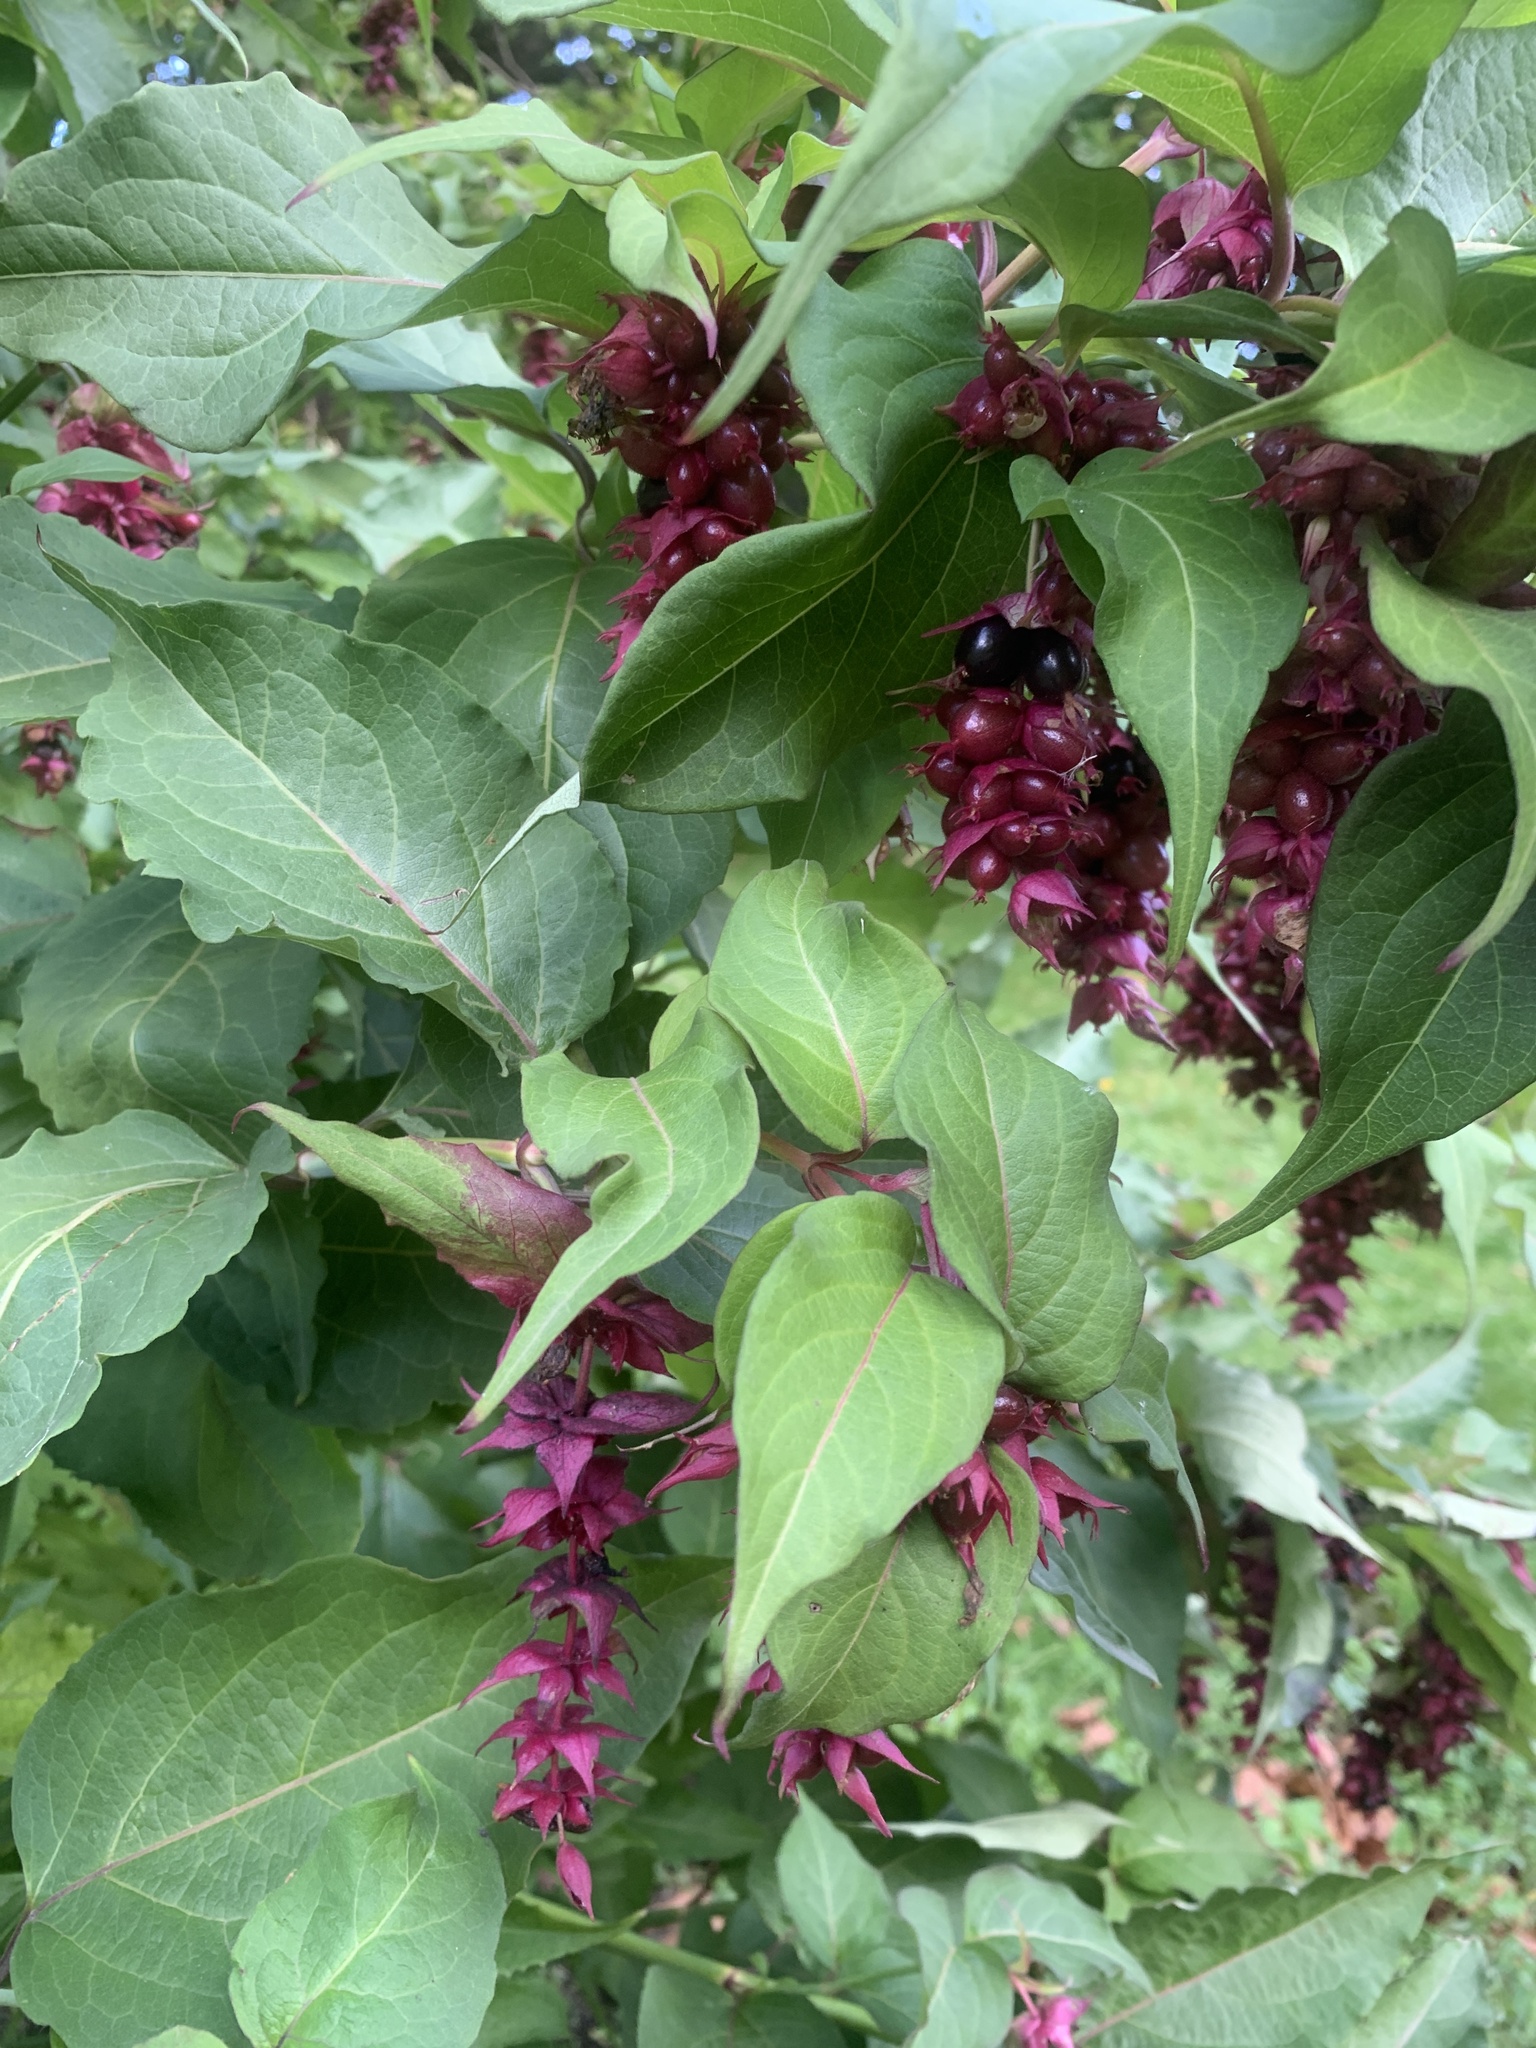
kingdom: Plantae
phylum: Tracheophyta
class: Magnoliopsida
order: Dipsacales
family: Caprifoliaceae
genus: Leycesteria
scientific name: Leycesteria formosa
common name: Himalayan honeysuckle
